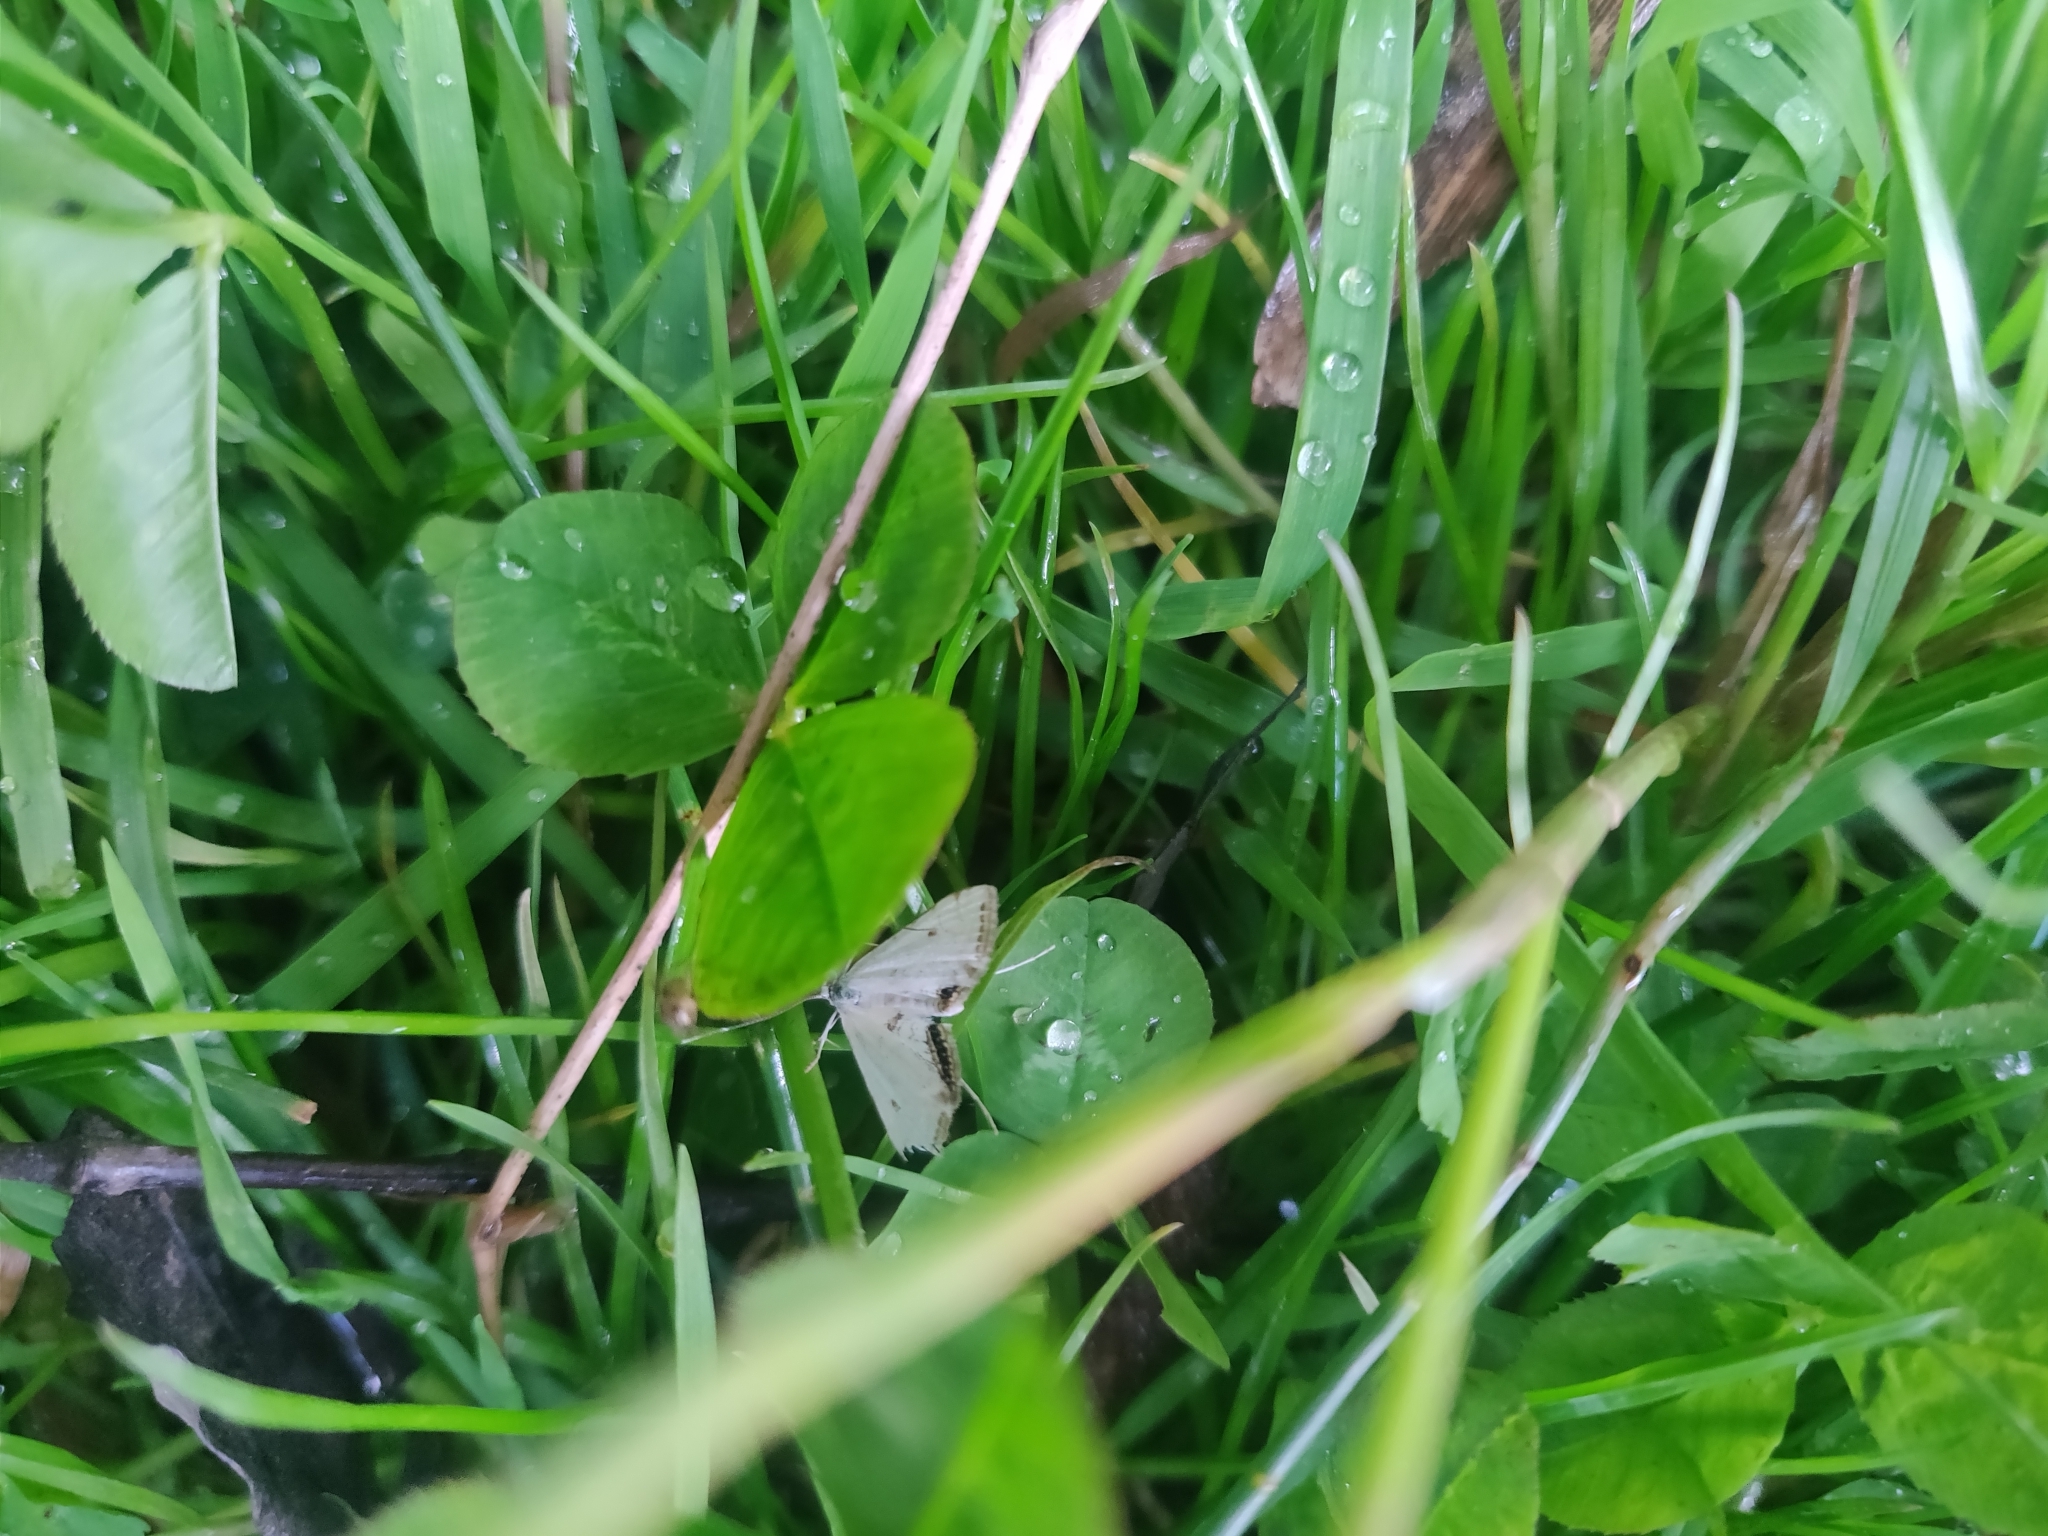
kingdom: Animalia
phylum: Arthropoda
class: Insecta
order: Lepidoptera
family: Crambidae
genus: Cataclysta
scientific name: Cataclysta lemnata
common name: Small china-mark
